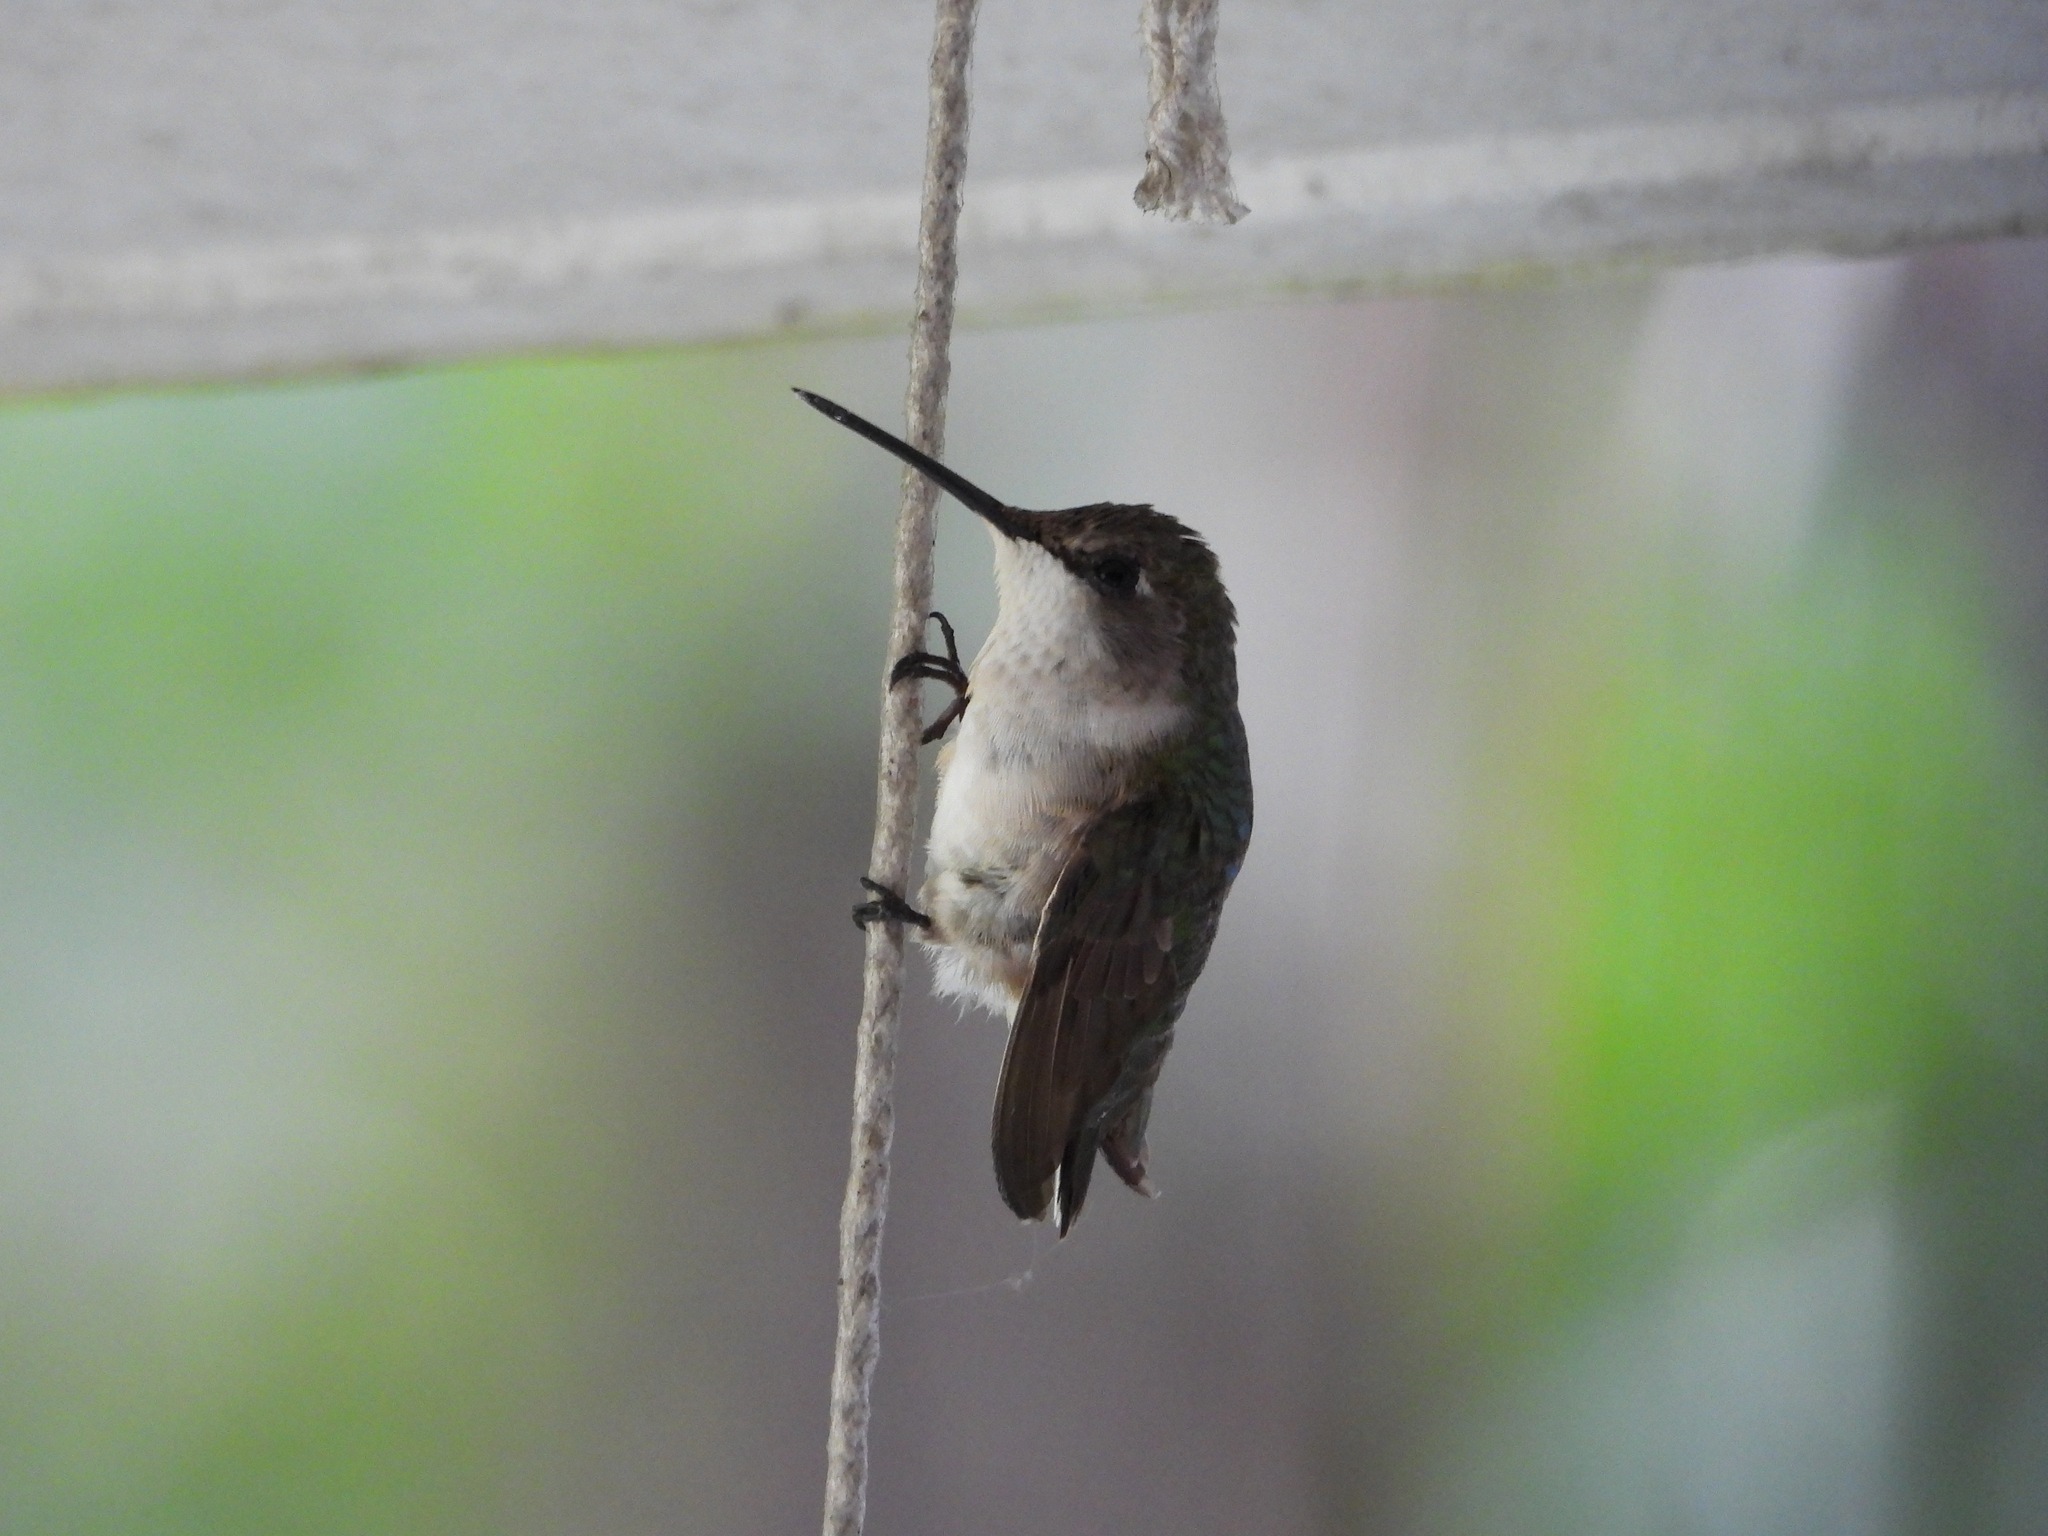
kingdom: Animalia
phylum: Chordata
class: Aves
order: Apodiformes
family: Trochilidae
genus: Archilochus
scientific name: Archilochus colubris
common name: Ruby-throated hummingbird
